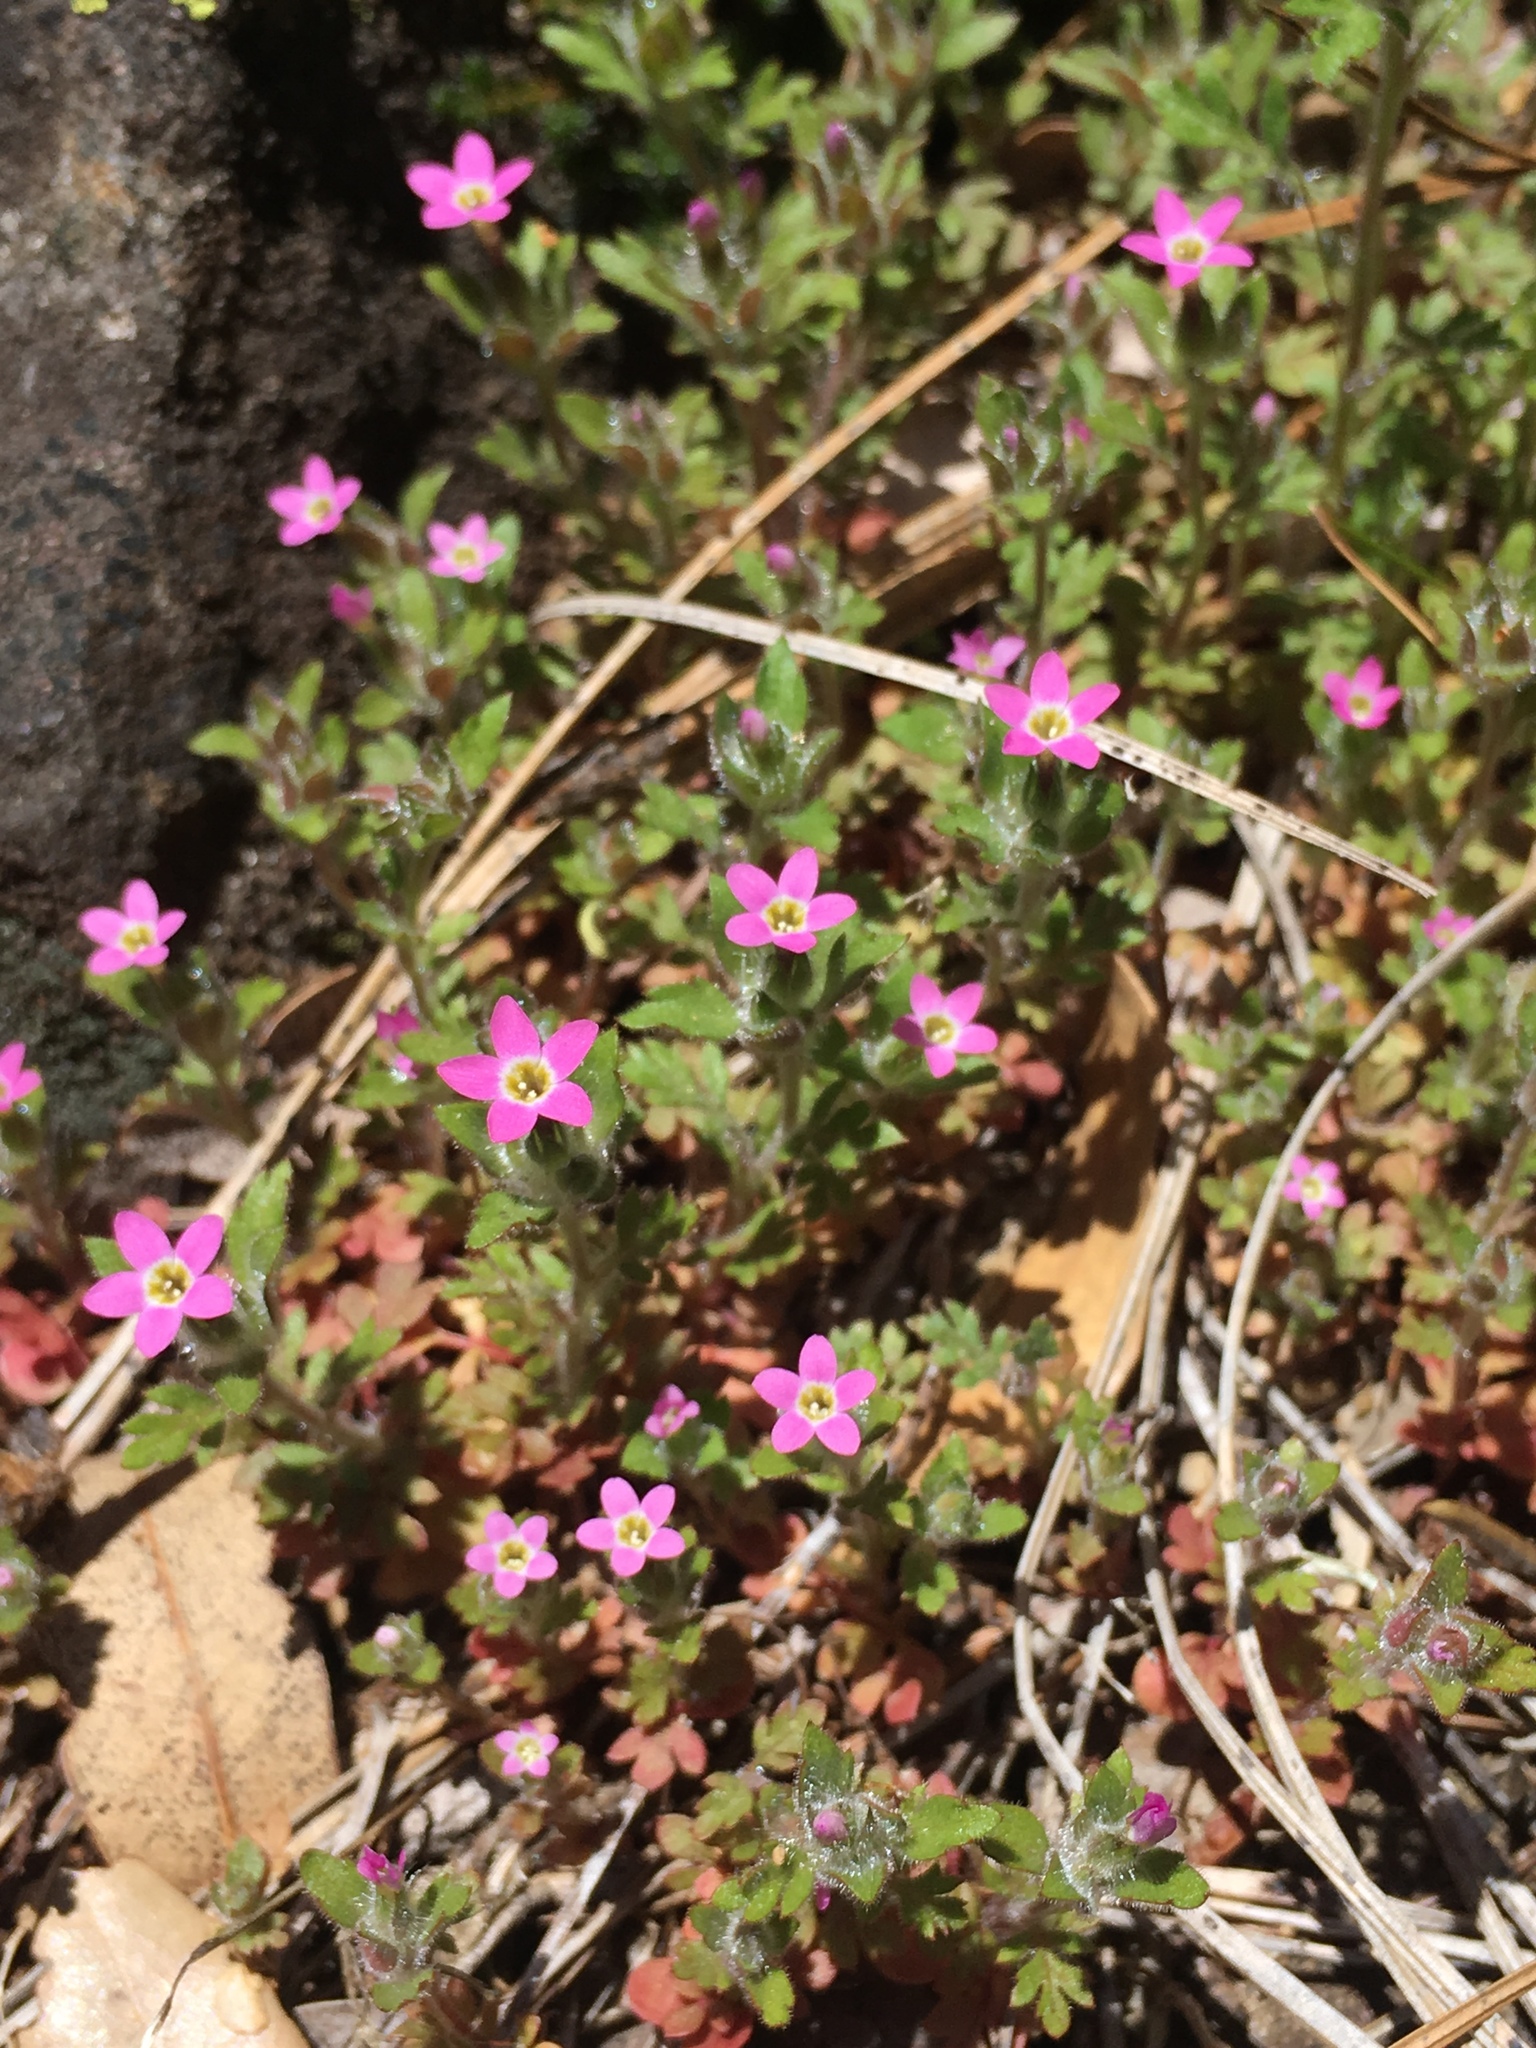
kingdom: Plantae
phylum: Tracheophyta
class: Magnoliopsida
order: Ericales
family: Polemoniaceae
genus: Collomia
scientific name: Collomia heterophylla
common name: Variable-leaved collomia
